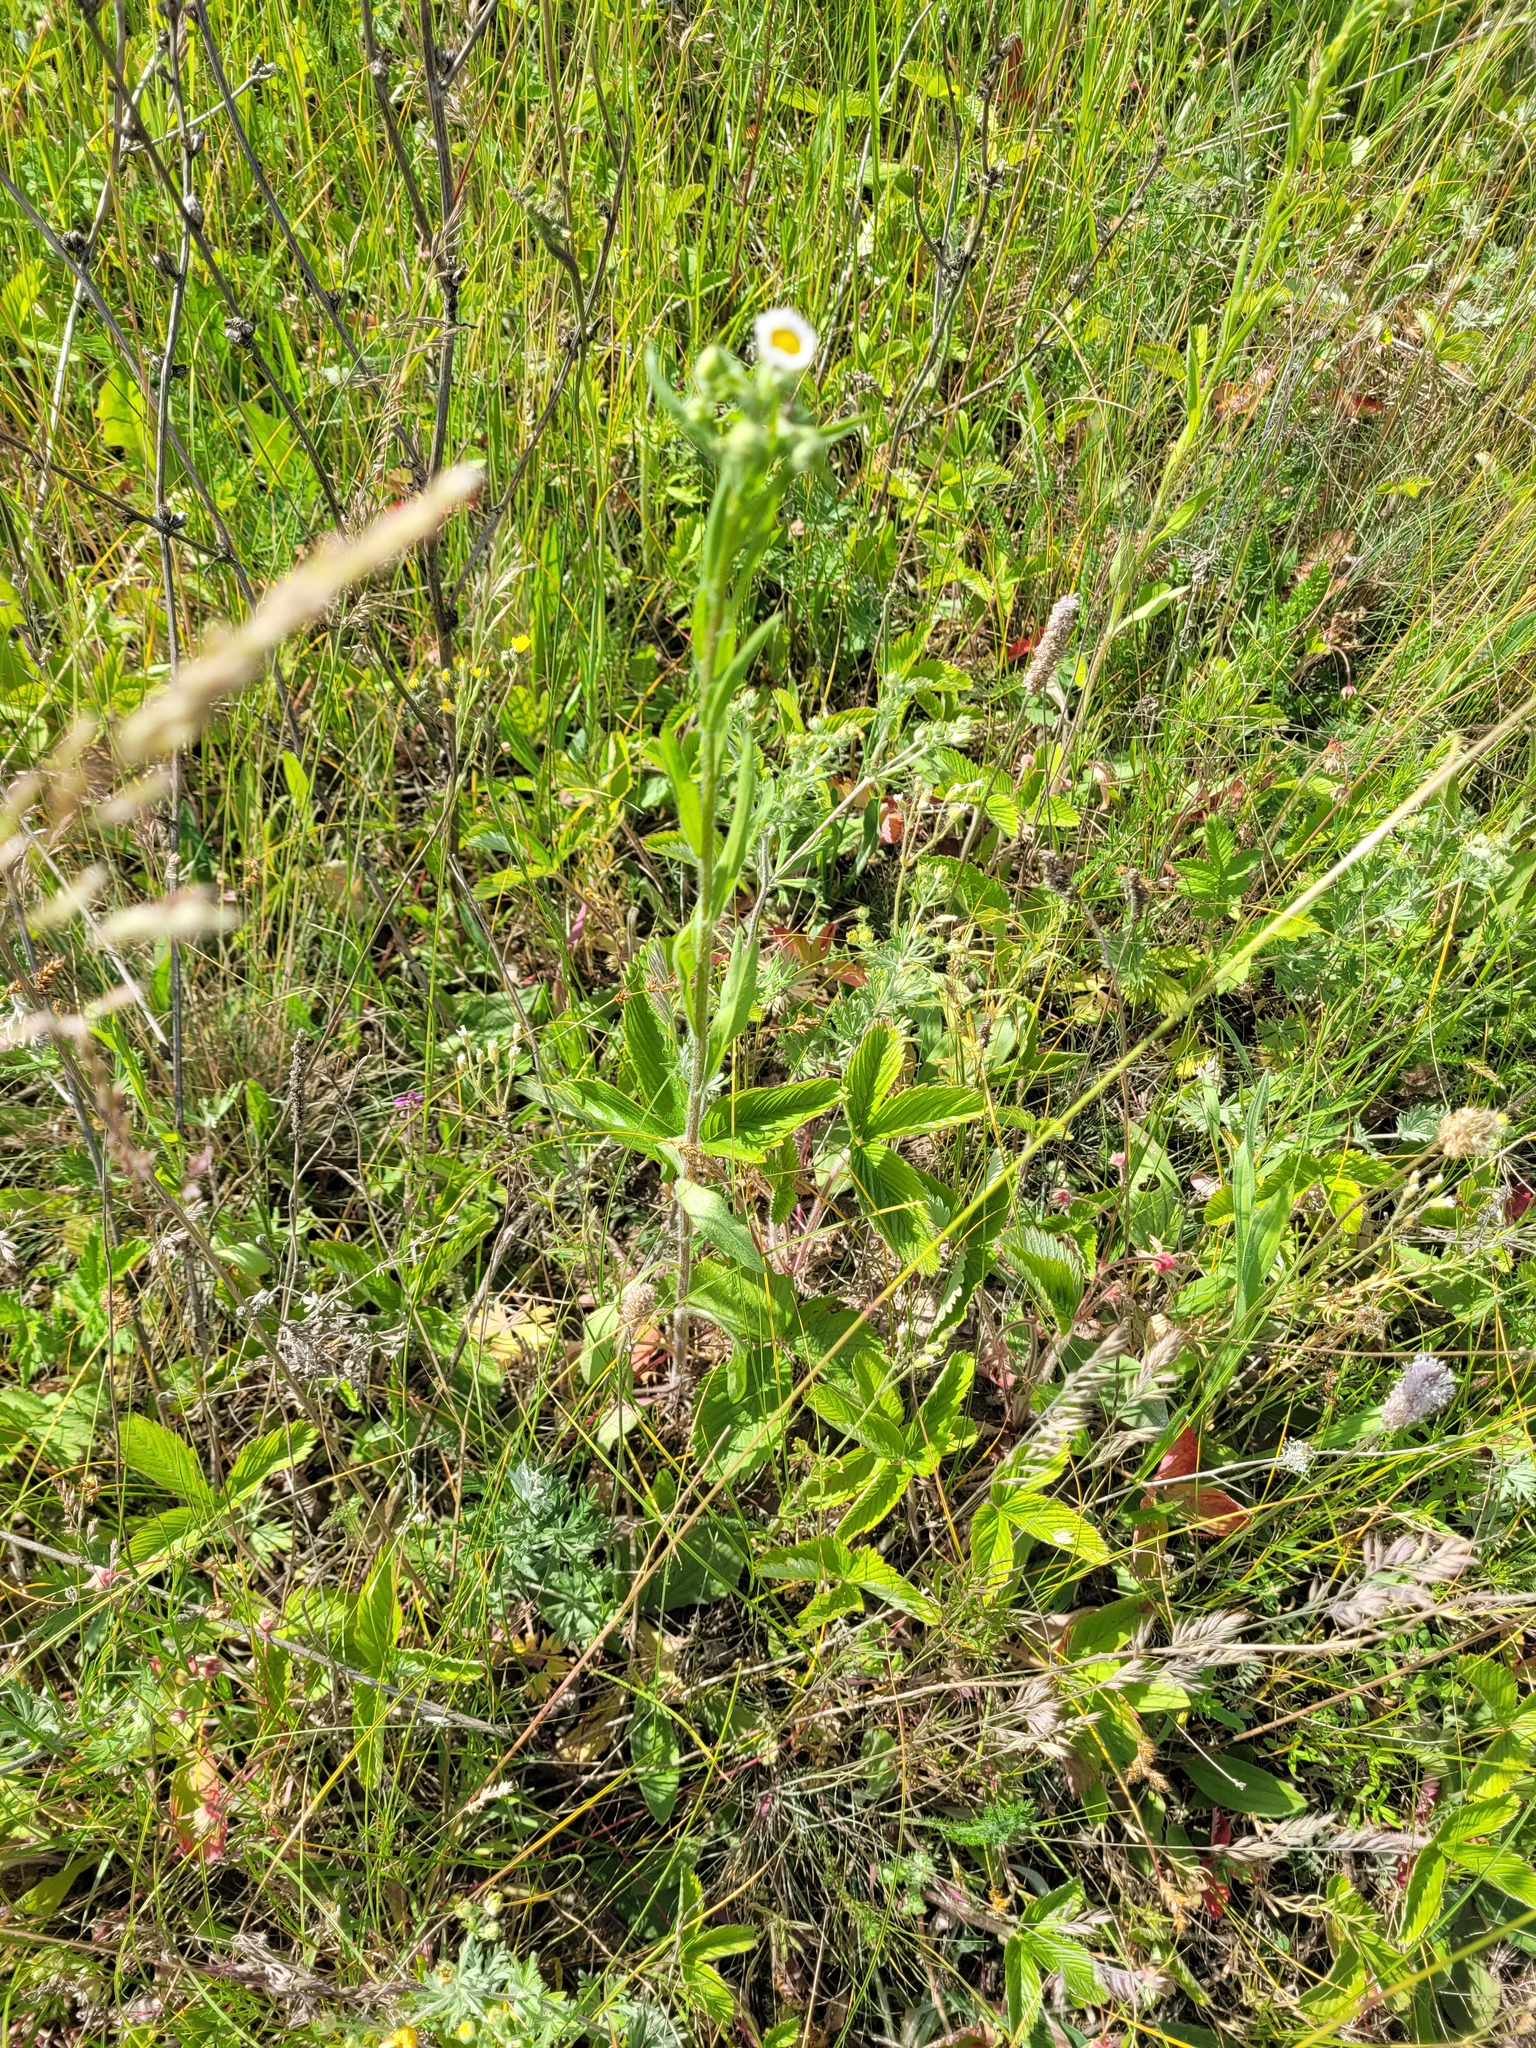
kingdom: Plantae
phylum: Tracheophyta
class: Magnoliopsida
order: Asterales
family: Asteraceae
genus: Erigeron
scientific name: Erigeron annuus
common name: Tall fleabane
